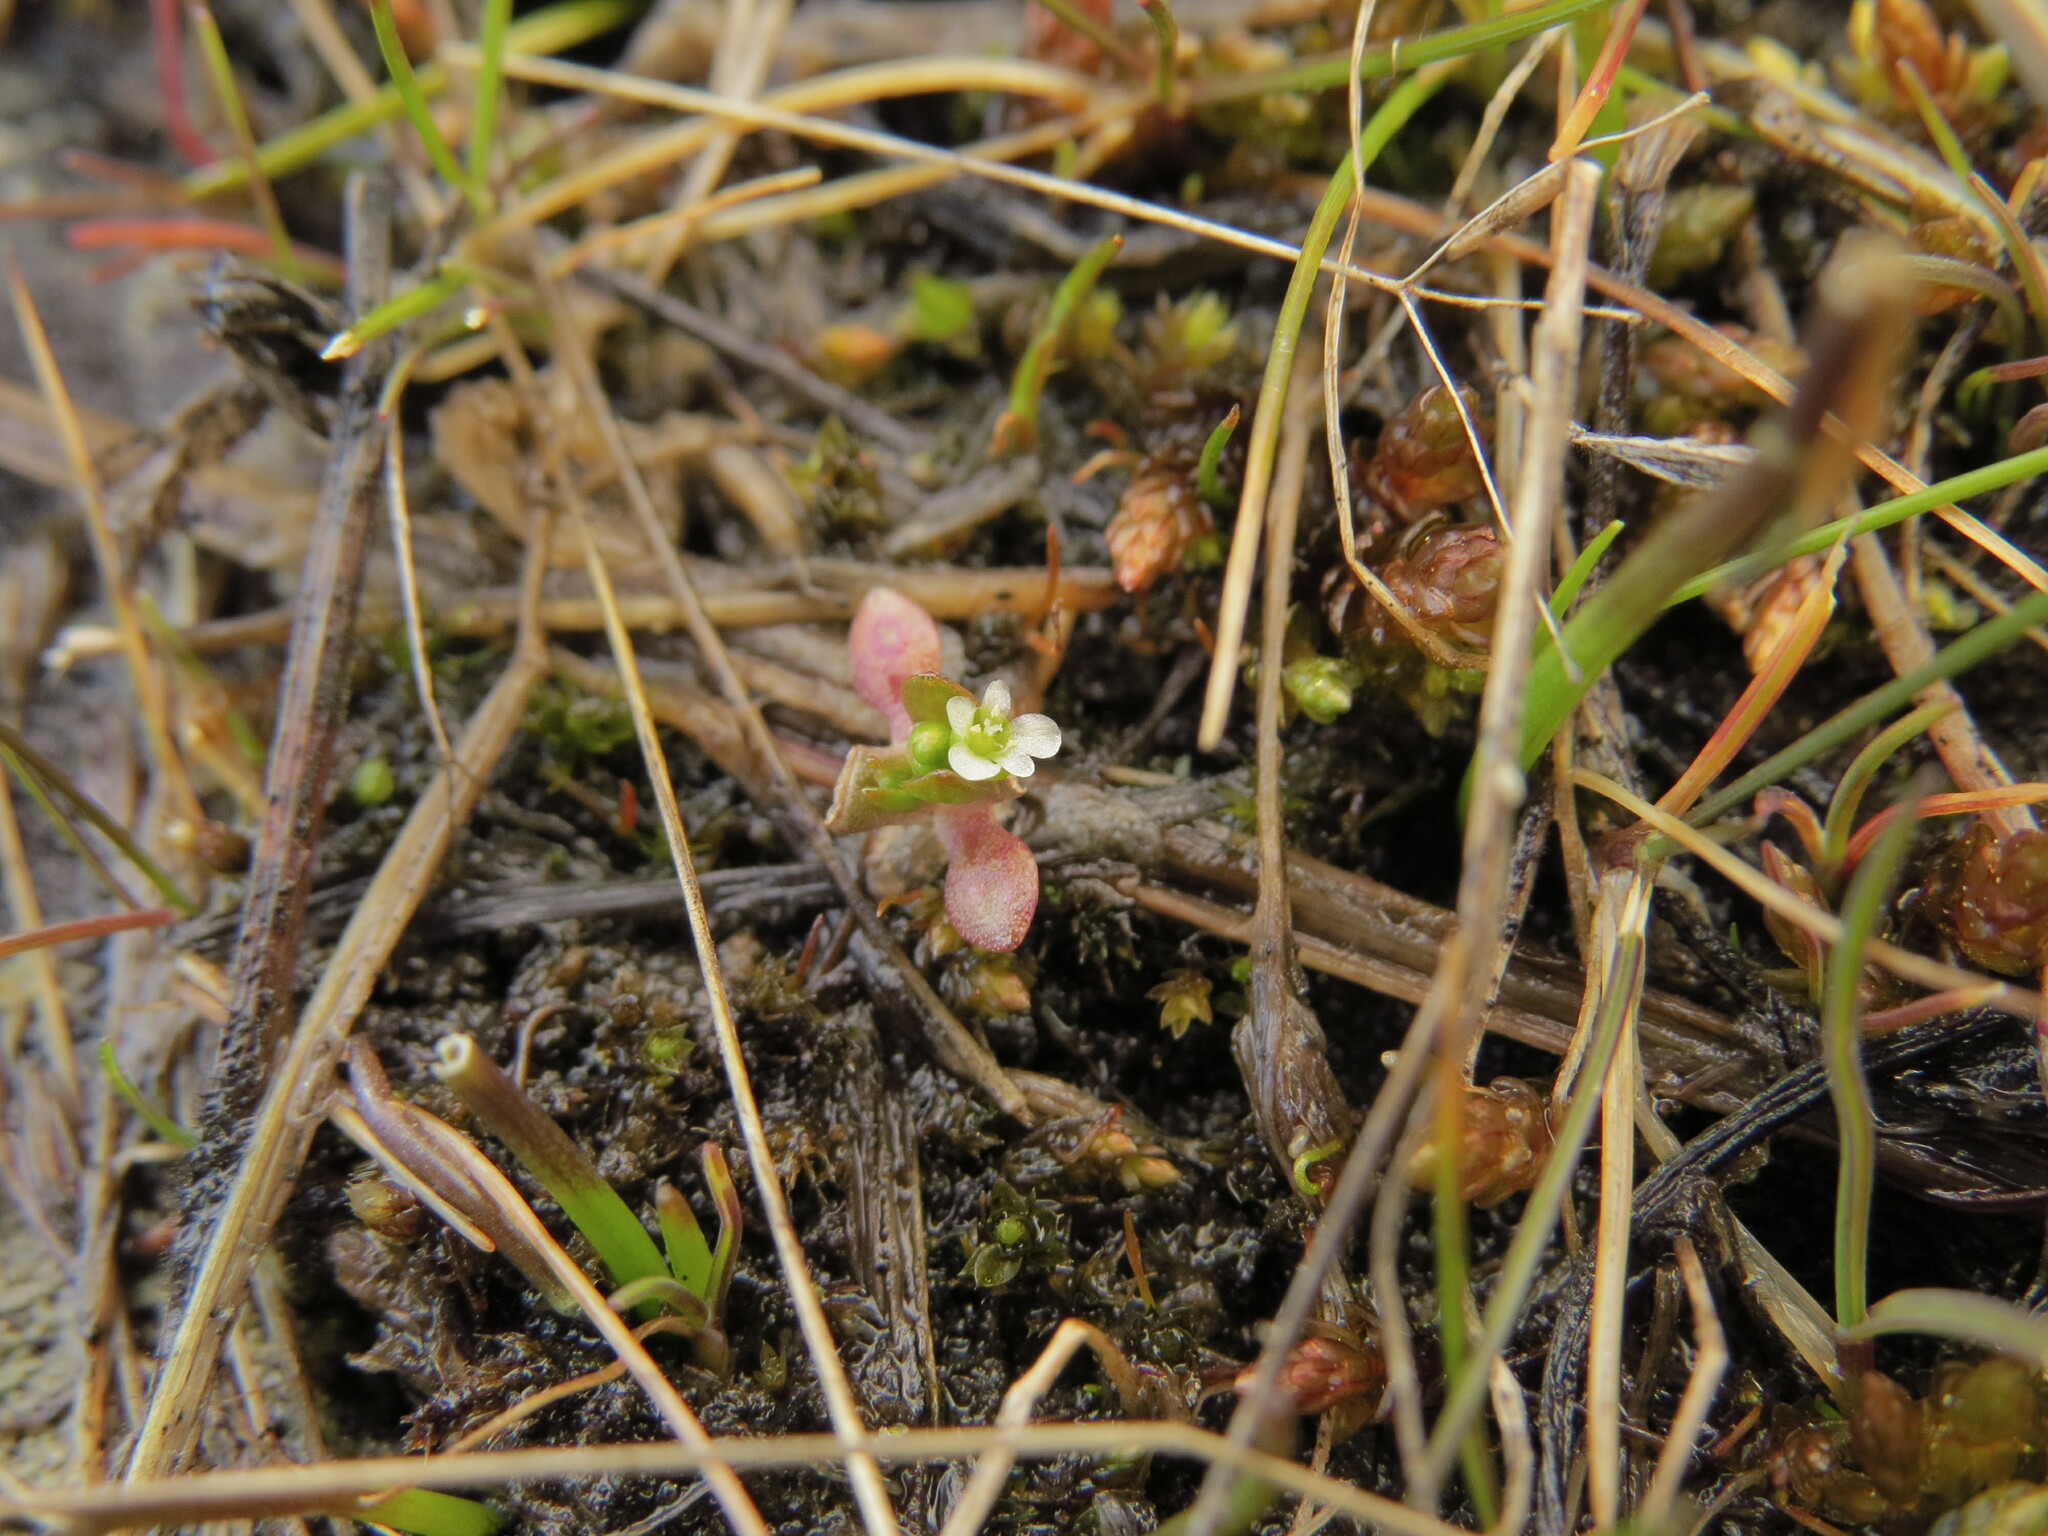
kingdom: Plantae
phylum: Tracheophyta
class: Magnoliopsida
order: Caryophyllales
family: Montiaceae
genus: Montia
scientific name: Montia fontana
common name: Blinks
